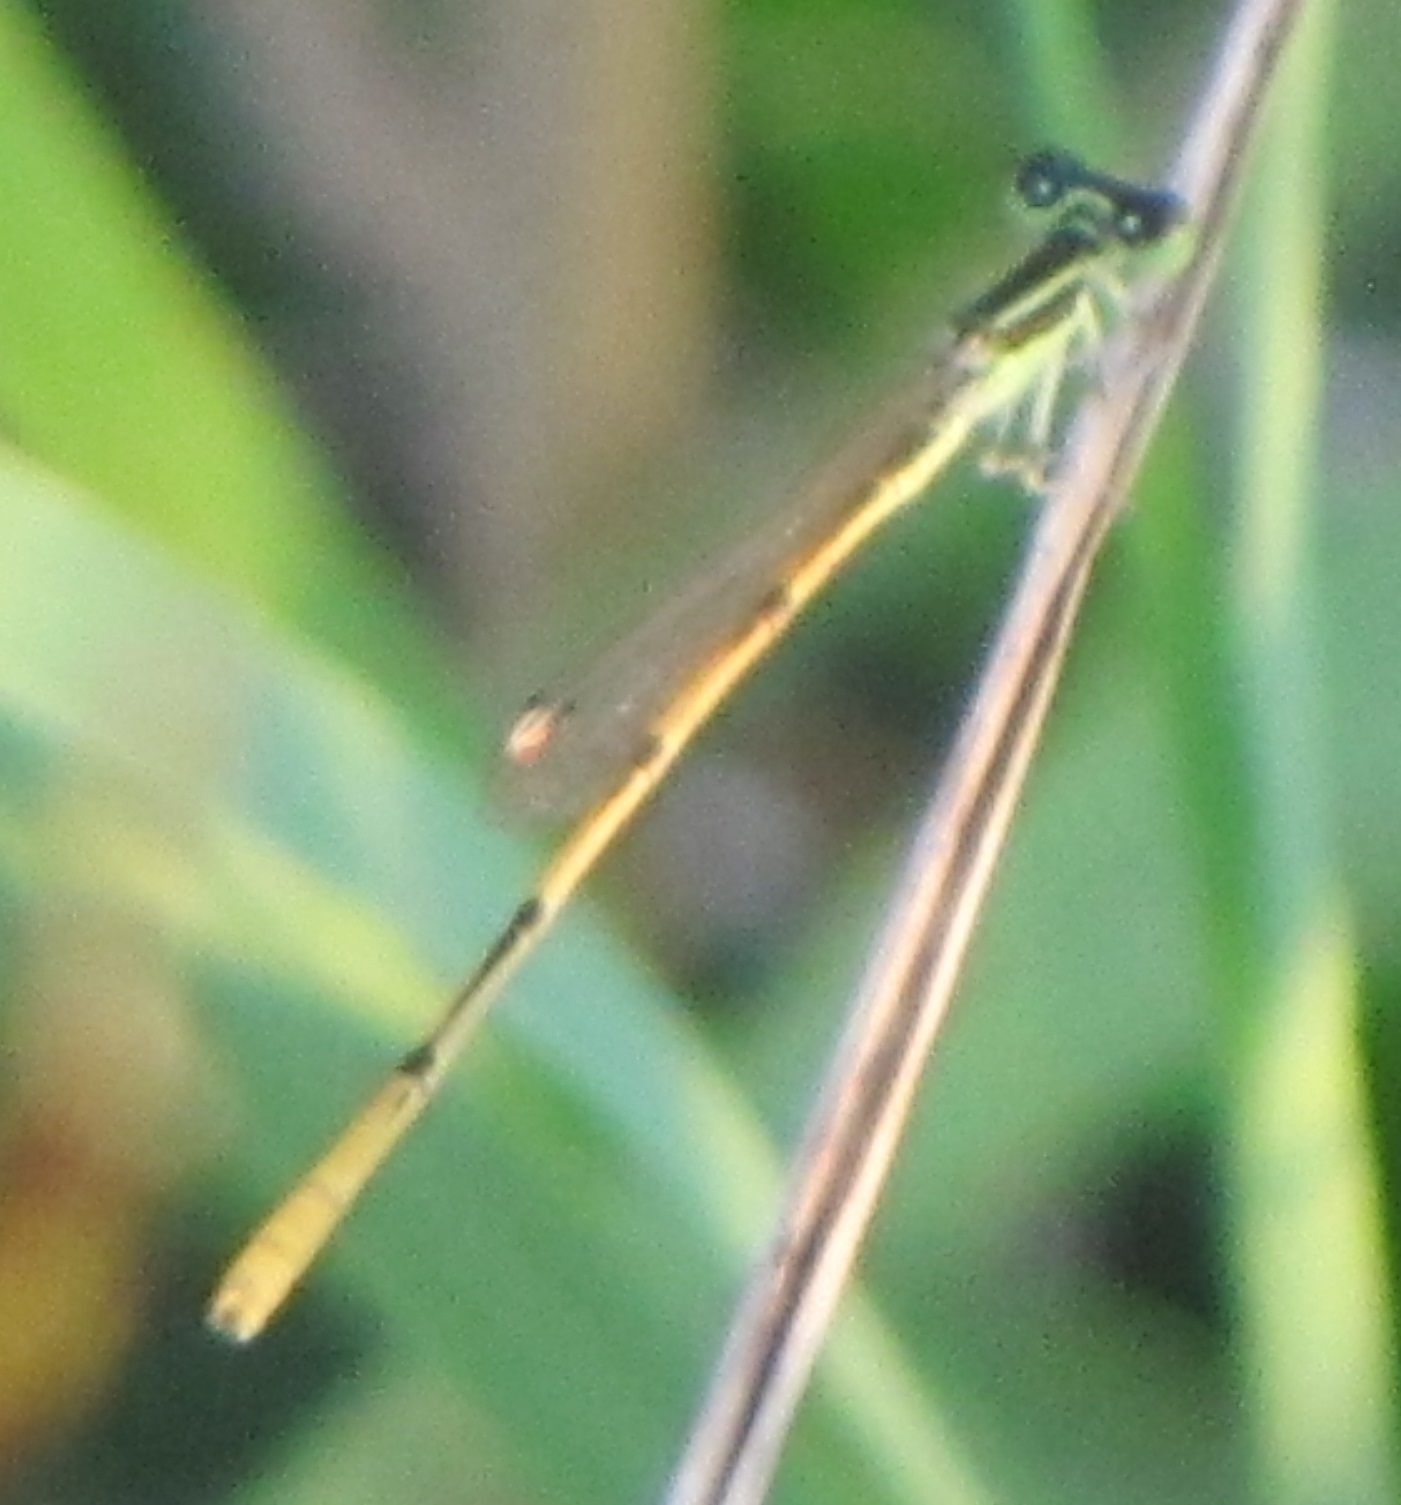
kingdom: Animalia
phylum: Arthropoda
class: Insecta
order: Odonata
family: Coenagrionidae
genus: Ischnura
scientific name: Ischnura hastata
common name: Citrine forktail
